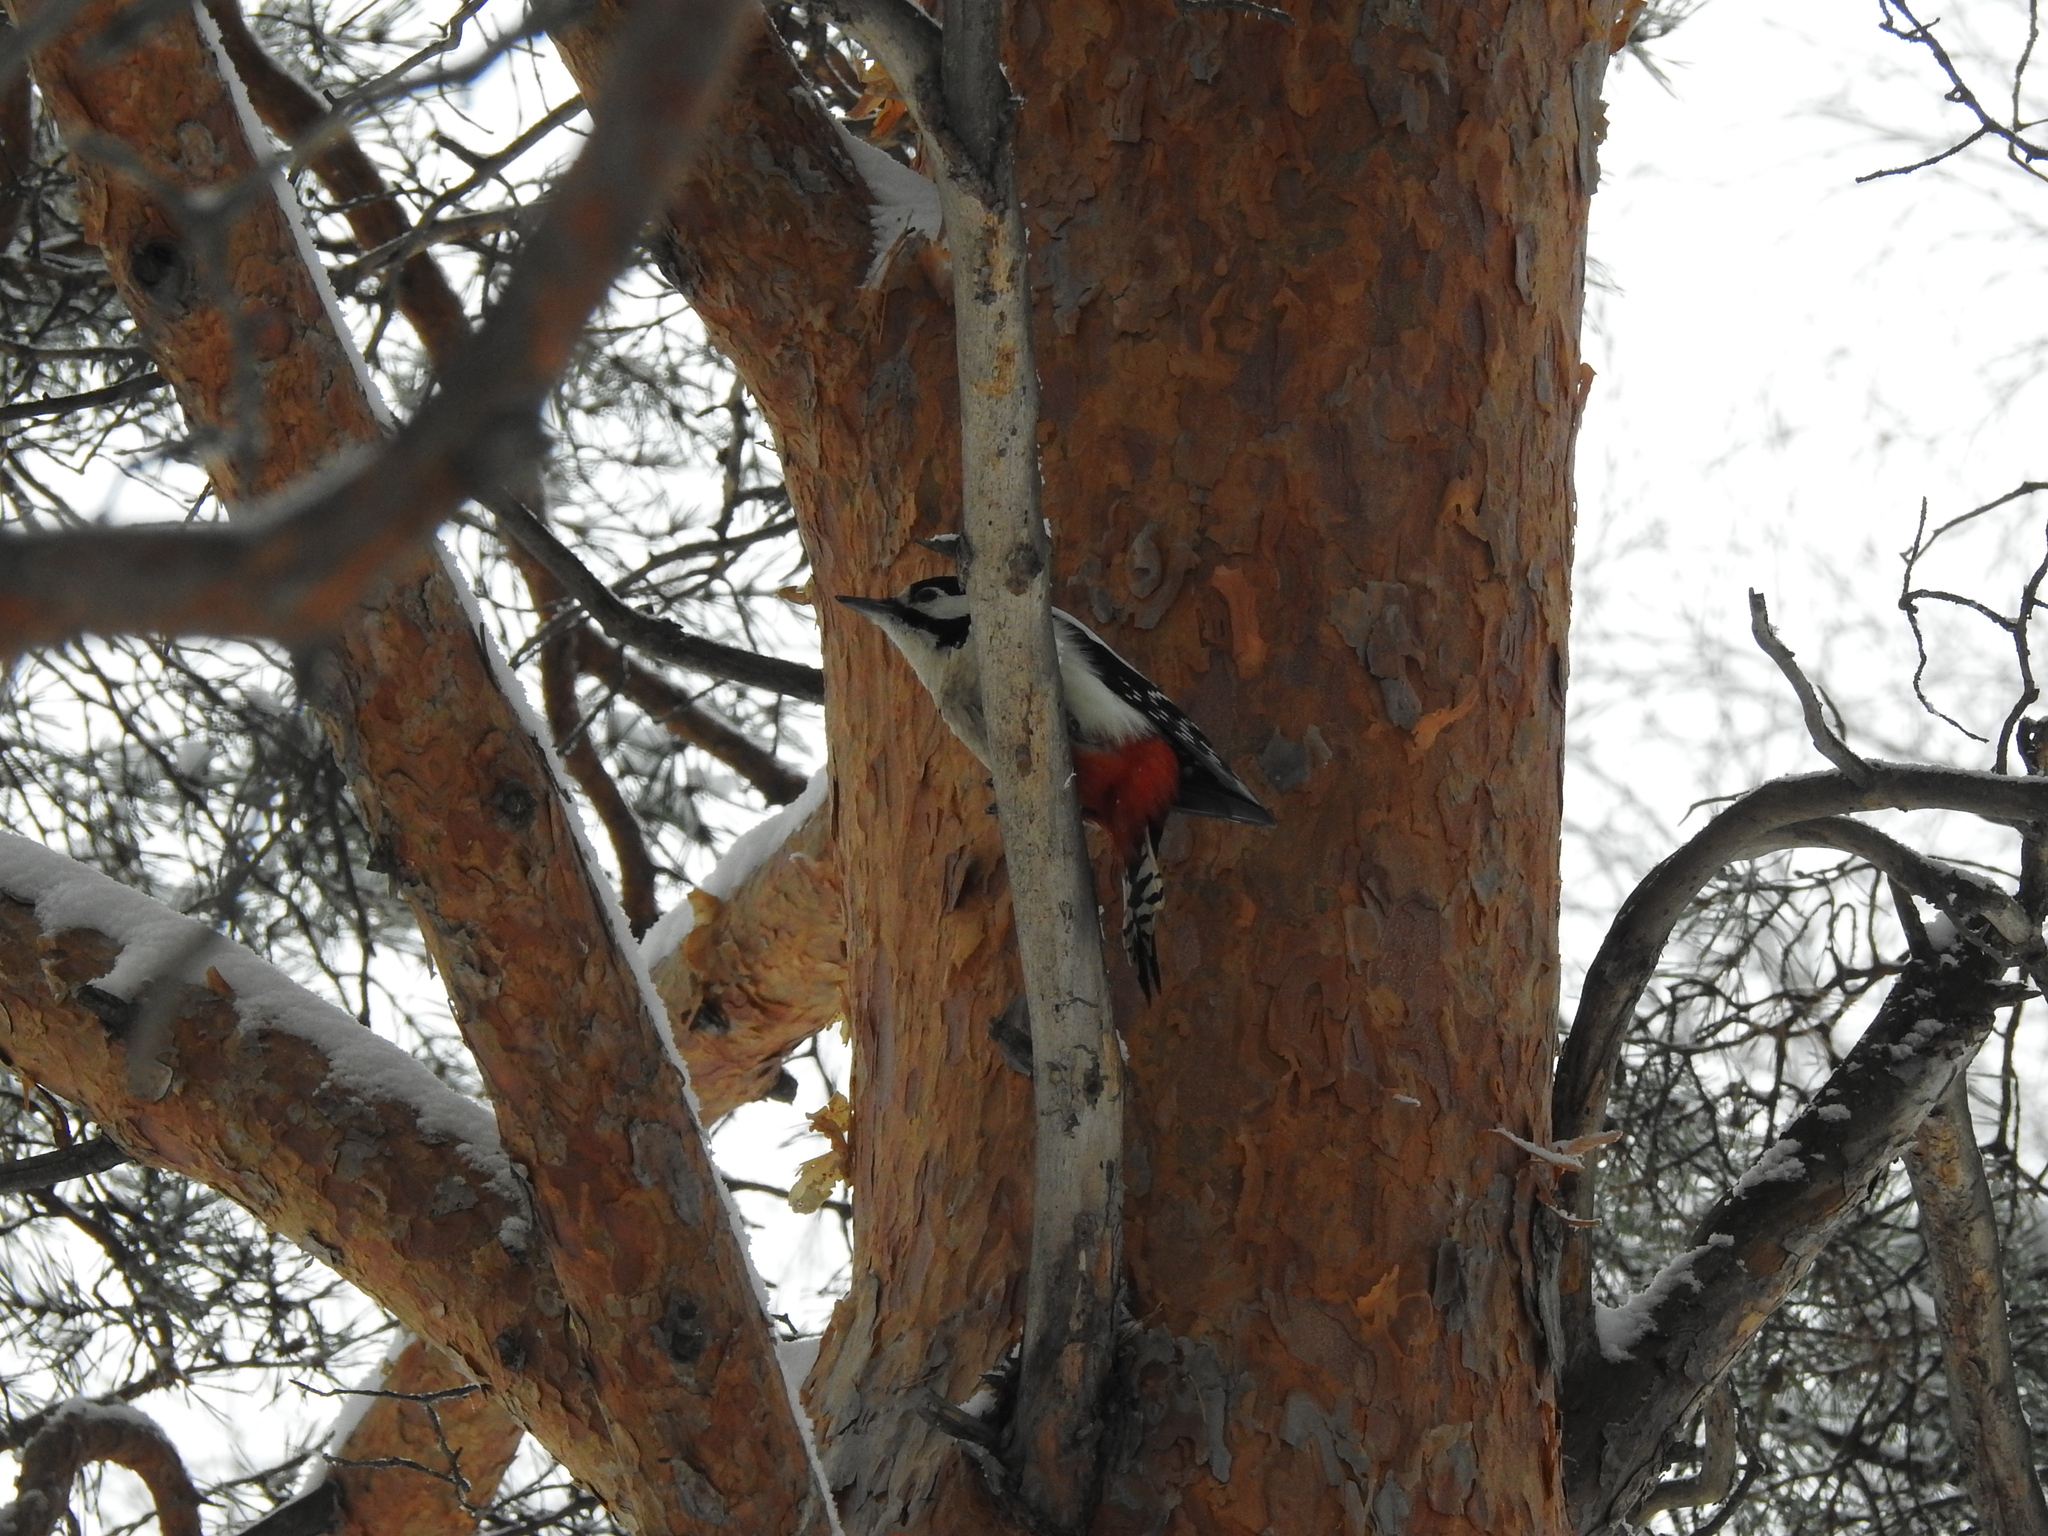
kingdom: Animalia
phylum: Chordata
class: Aves
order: Piciformes
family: Picidae
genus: Dendrocopos
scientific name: Dendrocopos major
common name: Great spotted woodpecker
